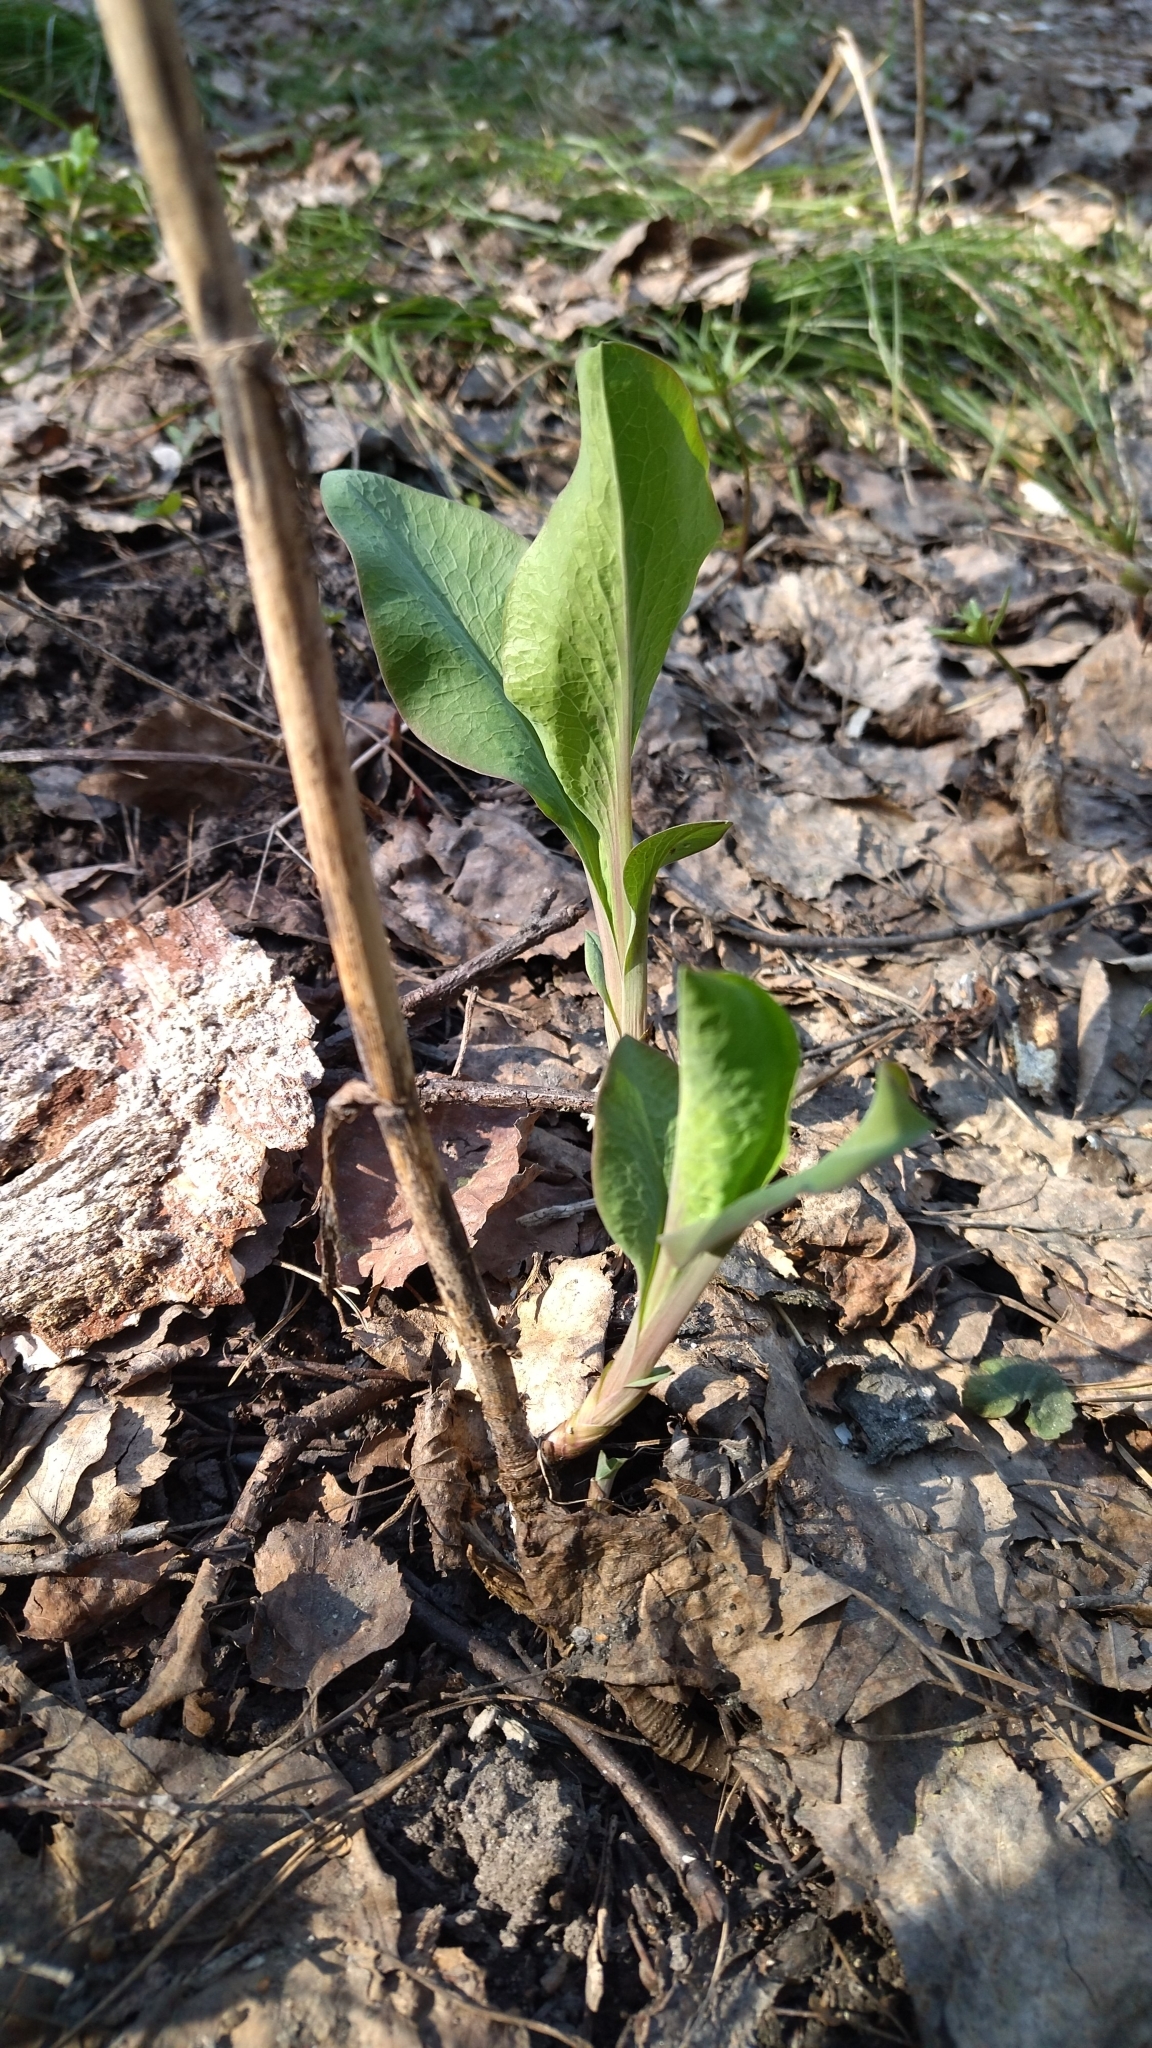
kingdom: Plantae
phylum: Tracheophyta
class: Magnoliopsida
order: Apiales
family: Apiaceae
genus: Bupleurum
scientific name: Bupleurum aureum
